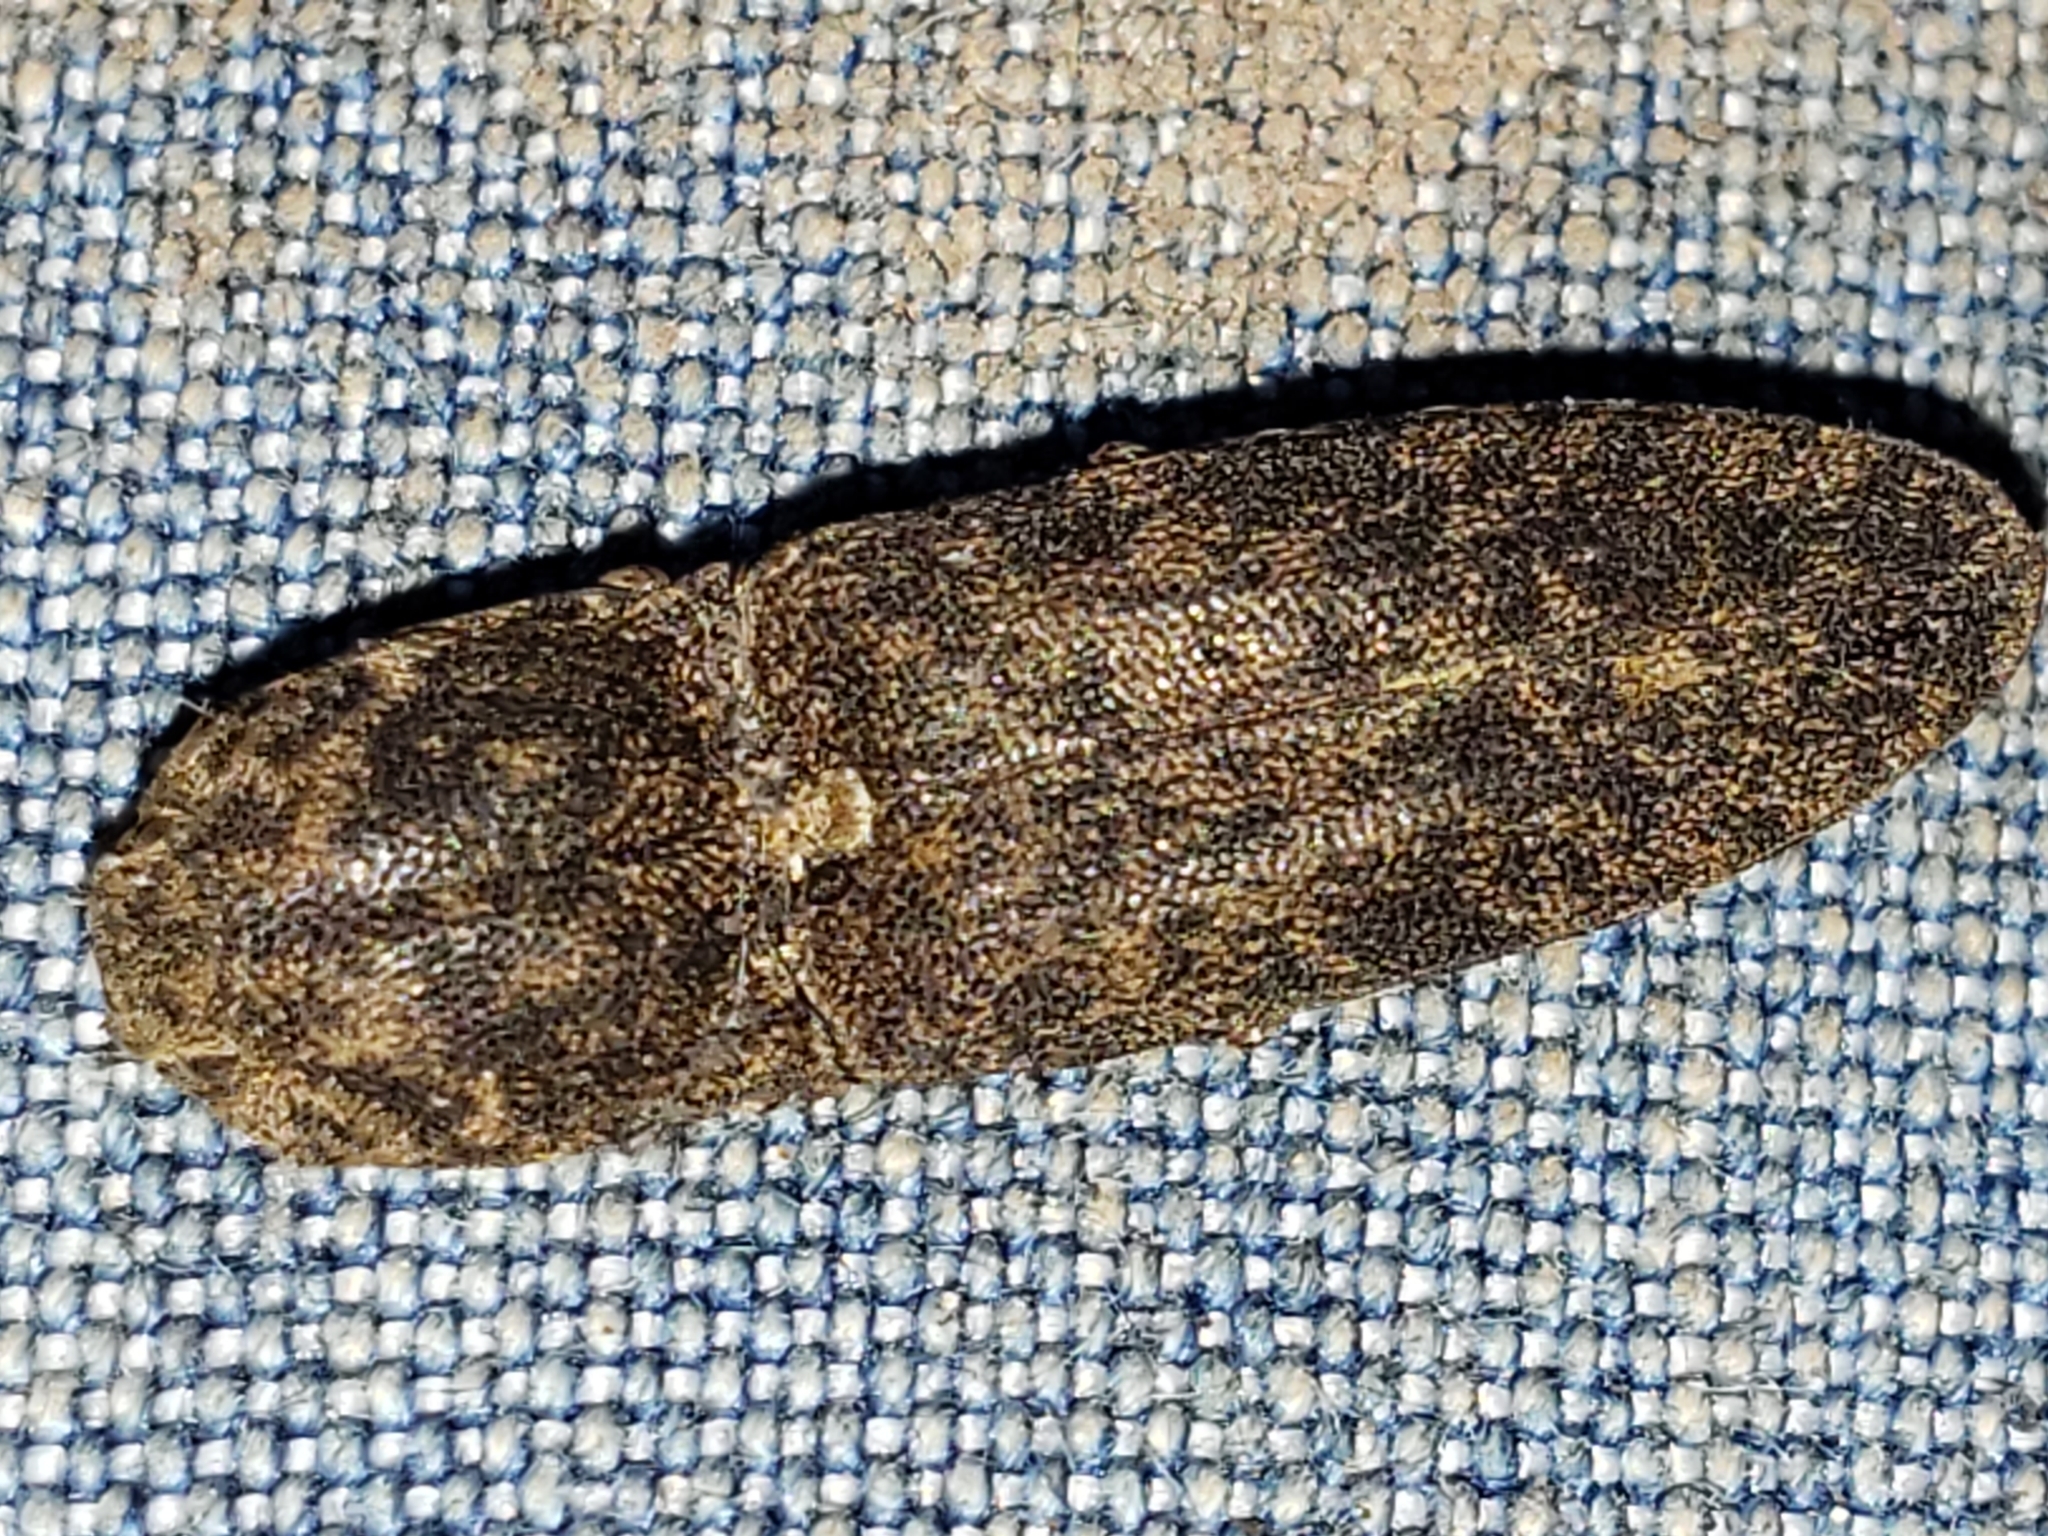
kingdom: Animalia
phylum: Arthropoda
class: Insecta
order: Coleoptera
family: Elateridae
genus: Lacon
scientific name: Lacon marmoratus
